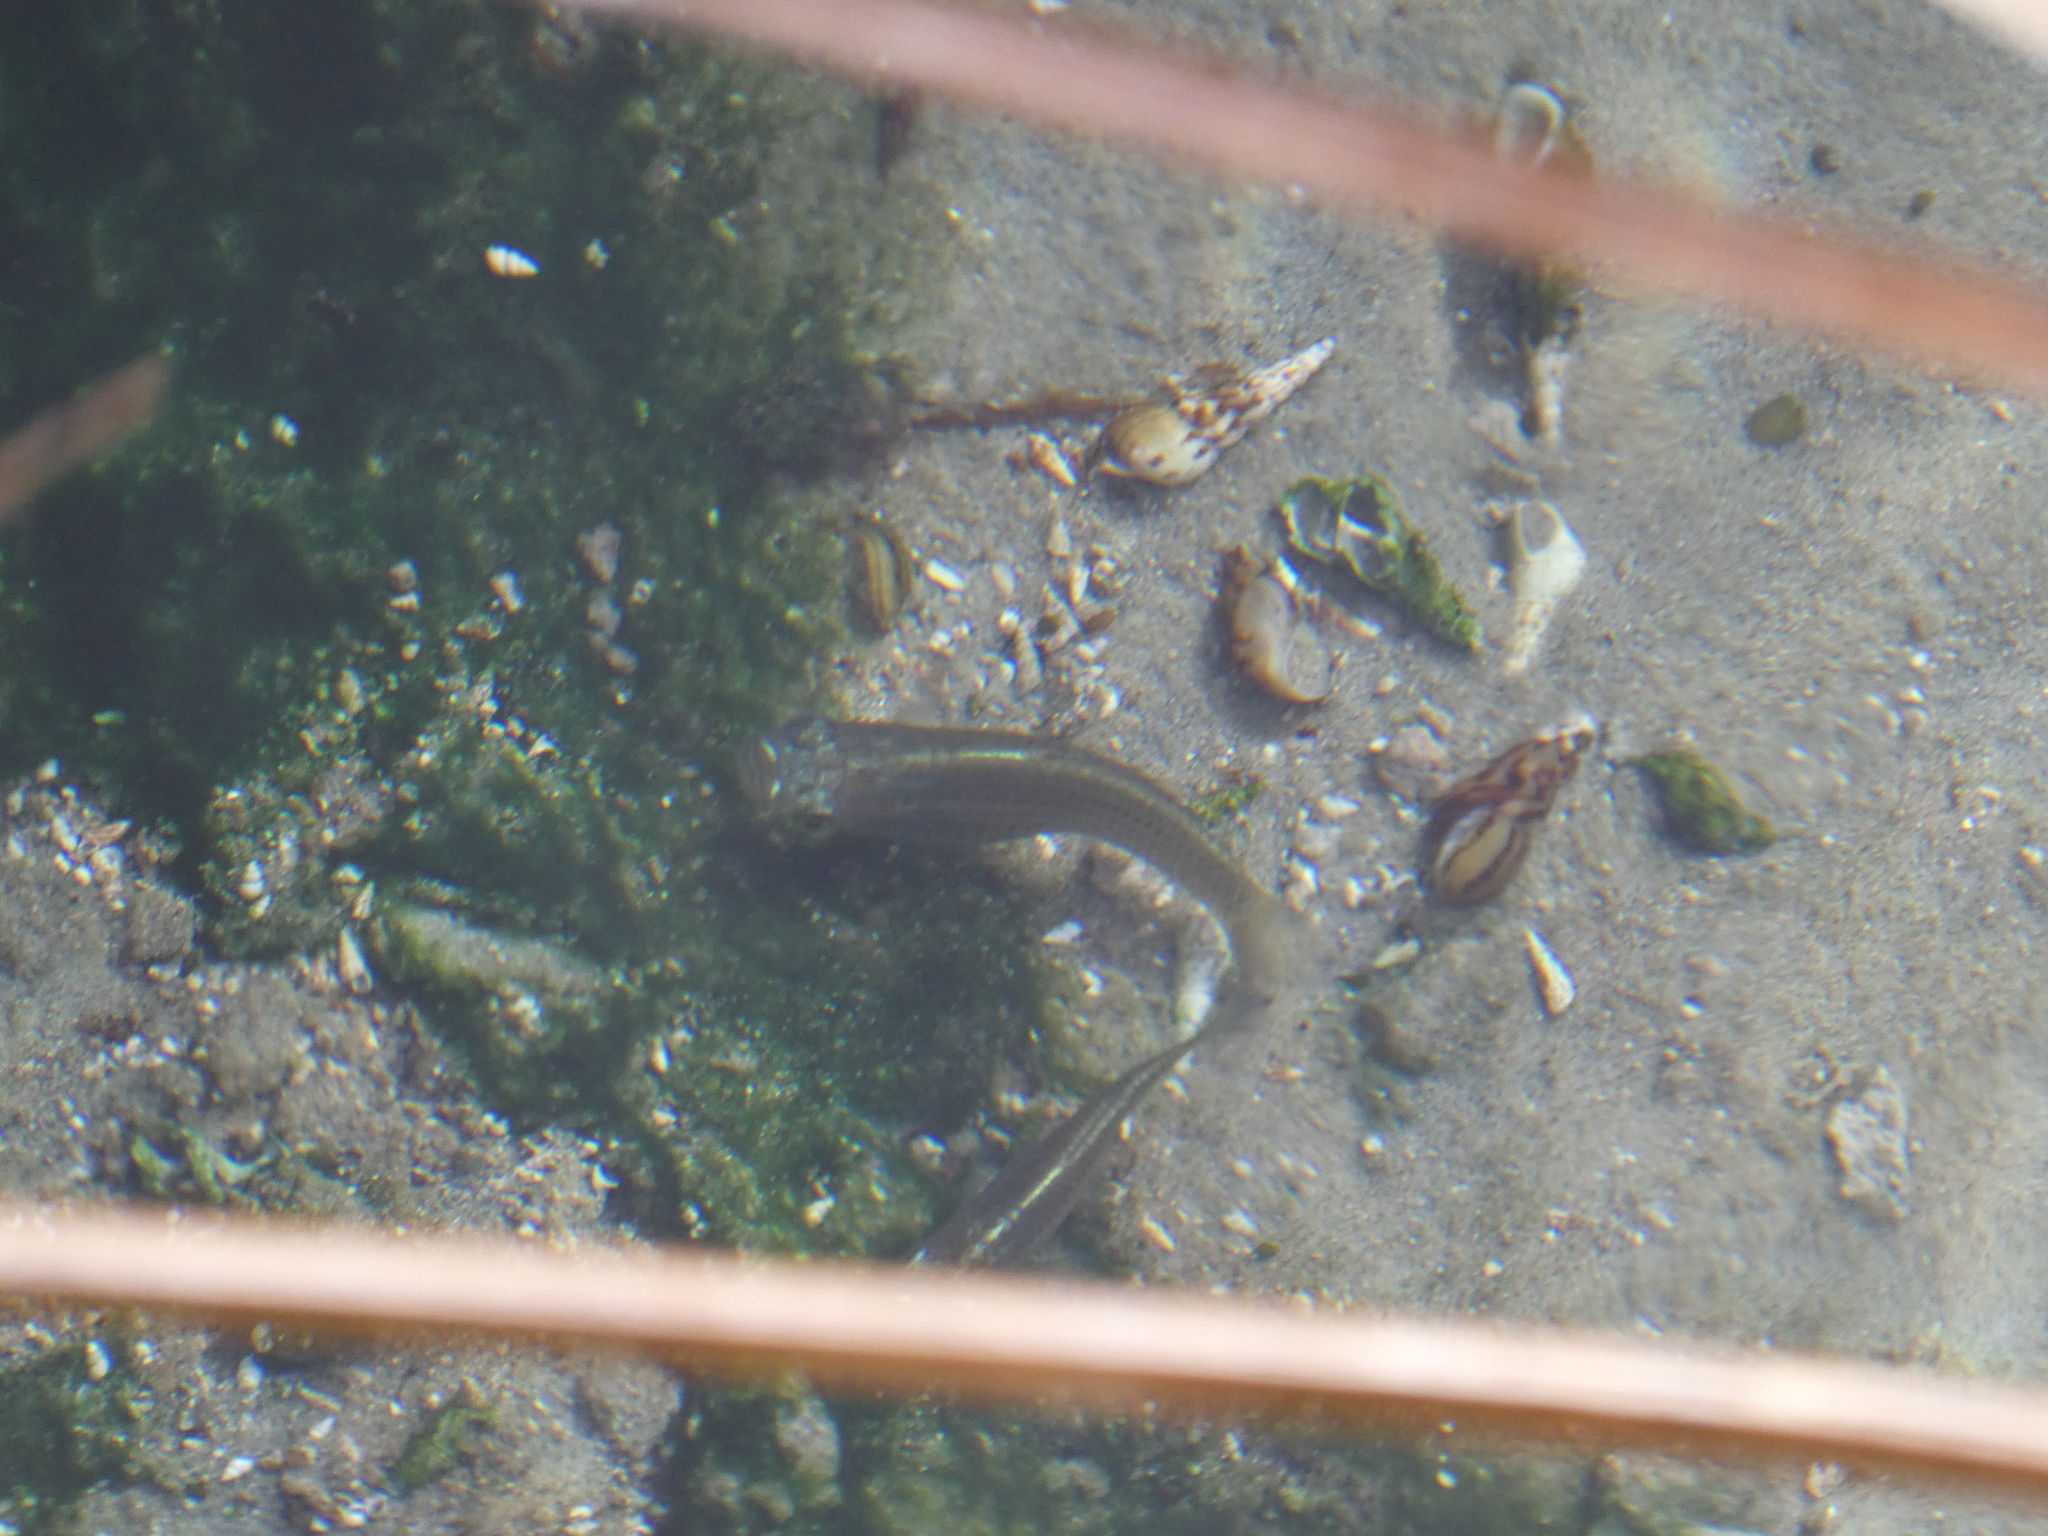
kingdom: Animalia
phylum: Mollusca
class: Gastropoda
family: Thiaridae
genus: Melanoides
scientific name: Melanoides tuberculata
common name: Red-rim melania
